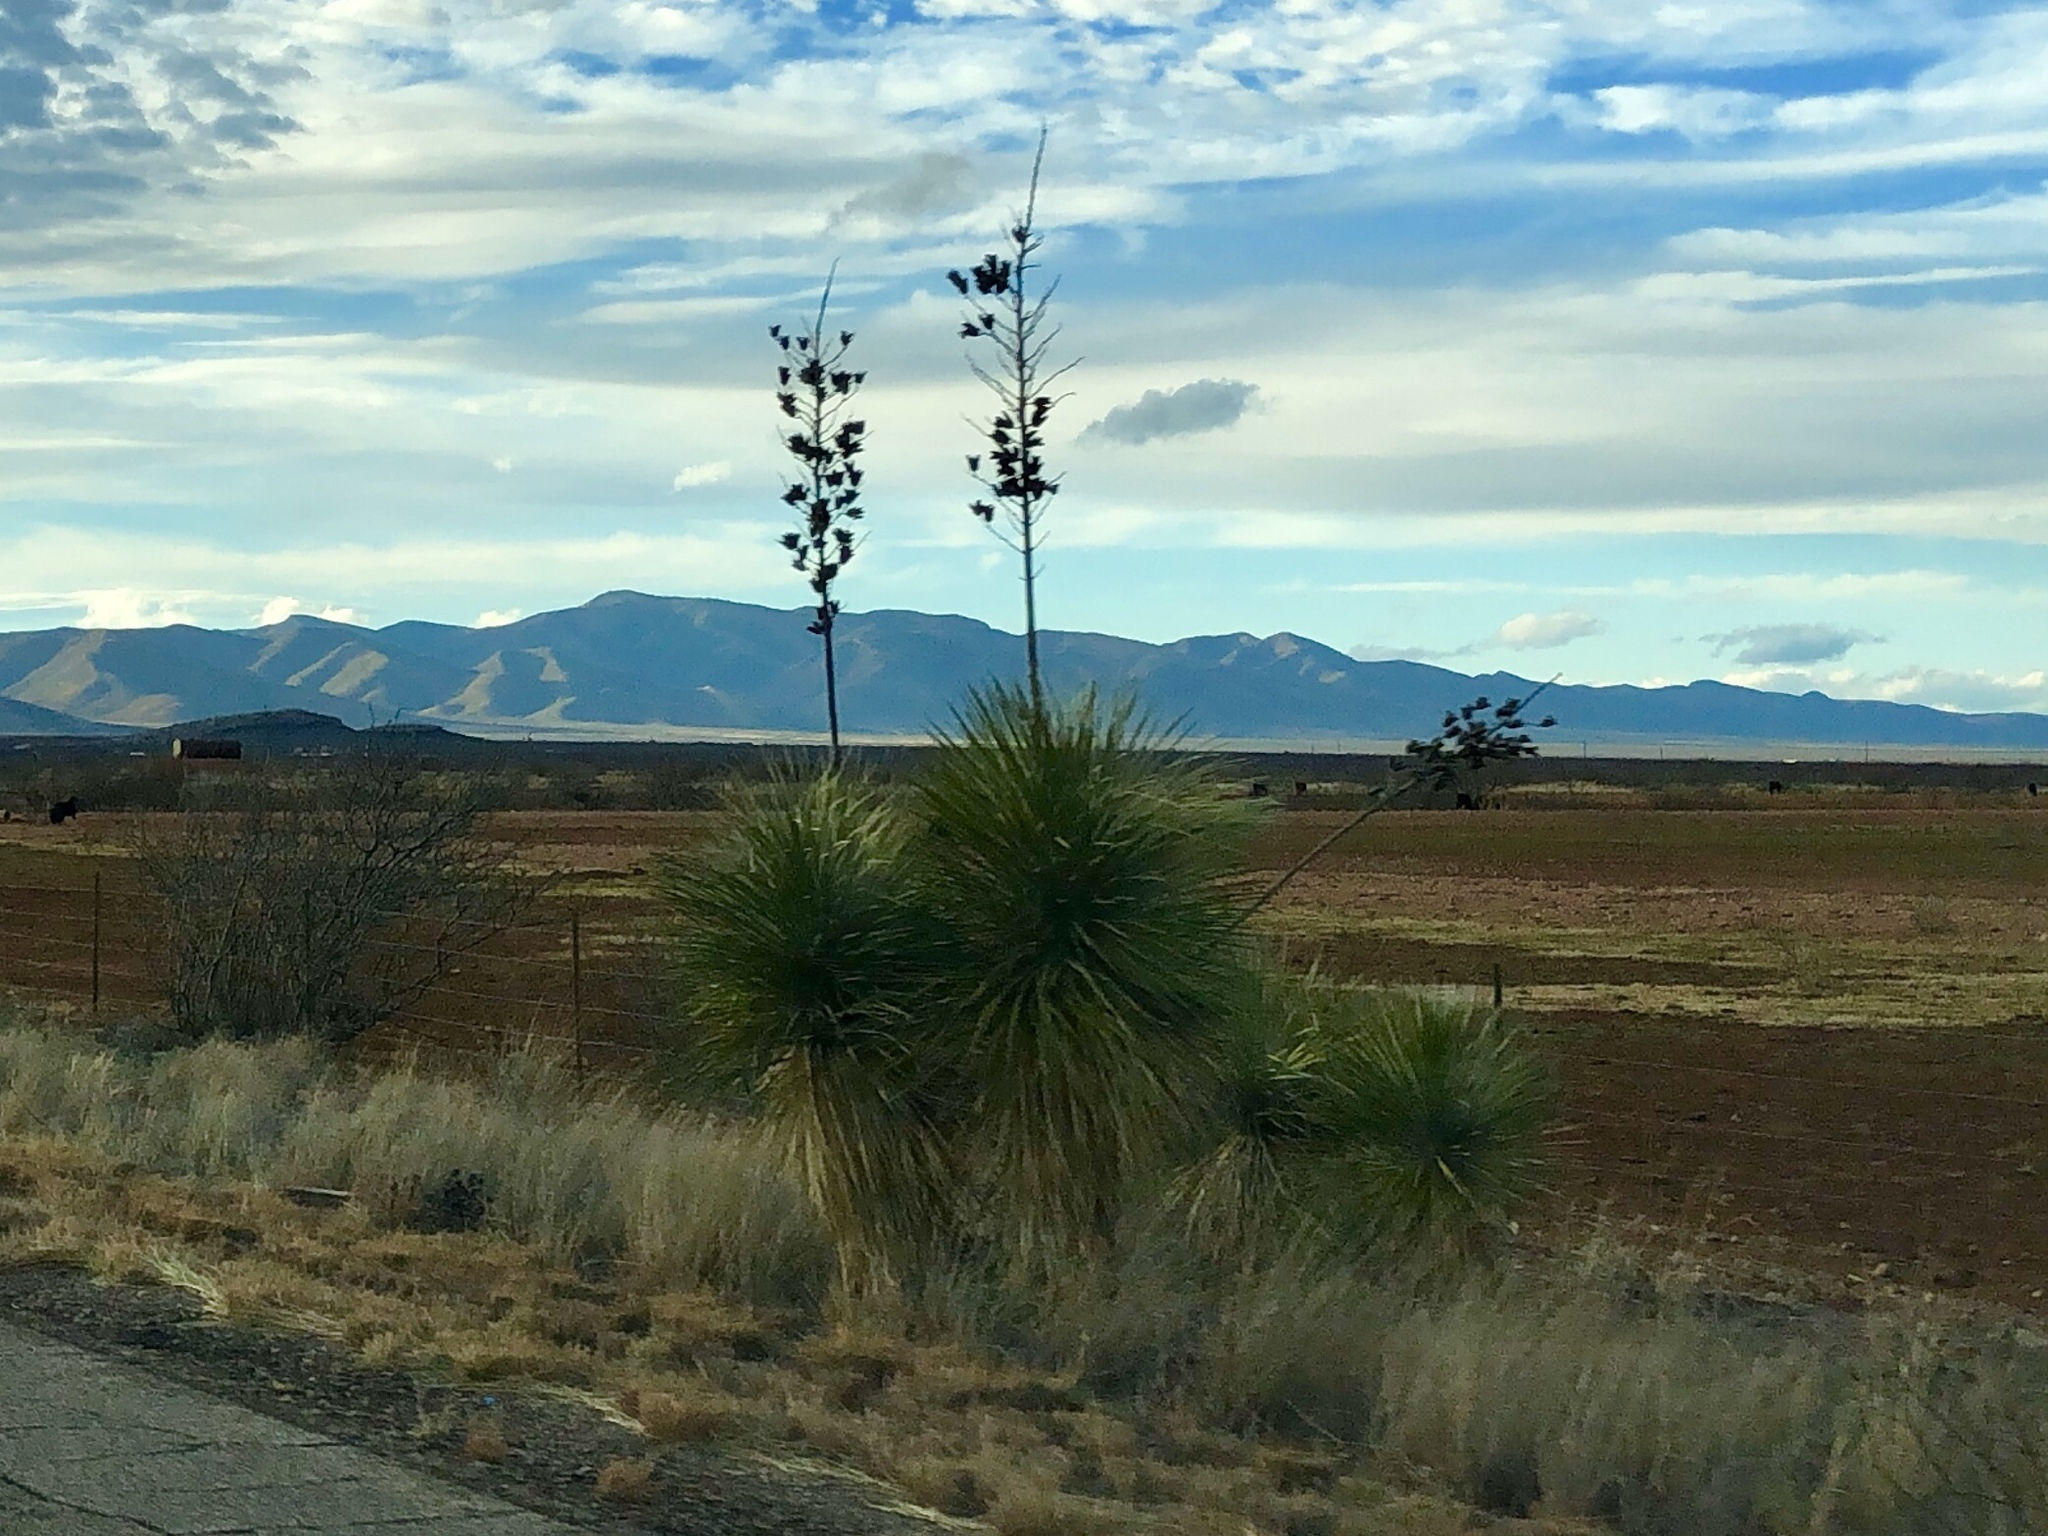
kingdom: Plantae
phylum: Tracheophyta
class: Liliopsida
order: Asparagales
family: Asparagaceae
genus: Yucca
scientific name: Yucca elata
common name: Palmella
